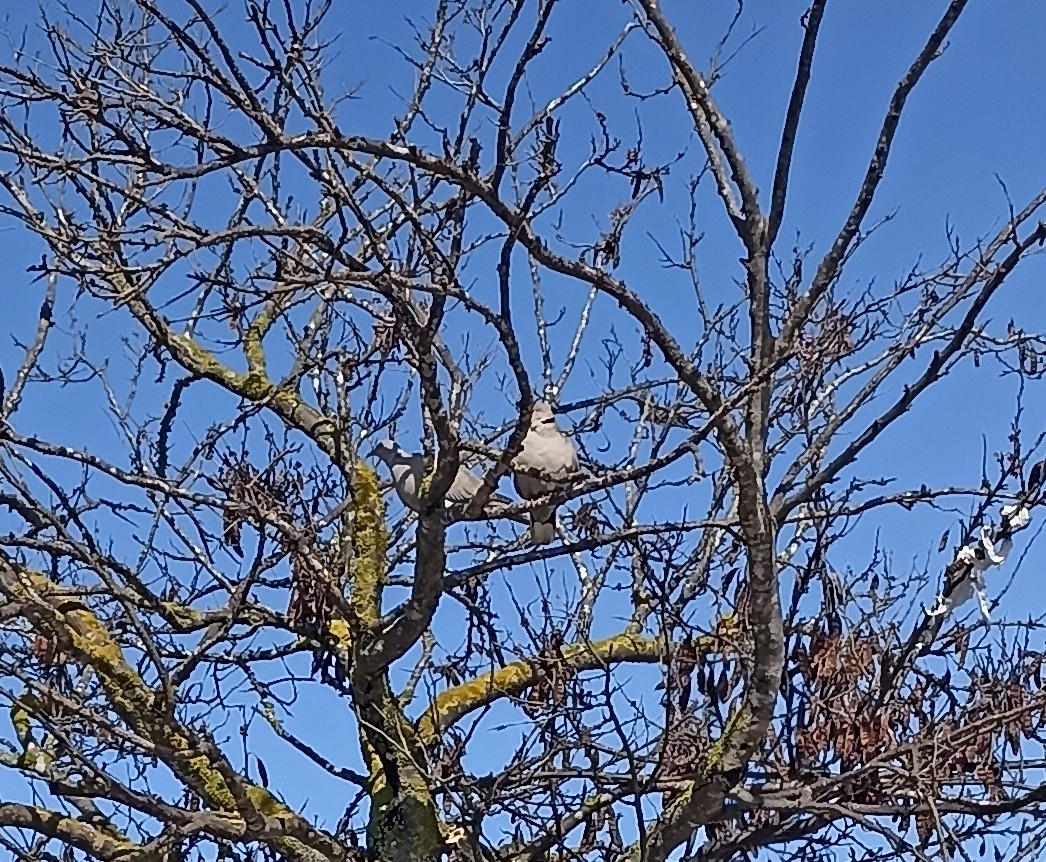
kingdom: Animalia
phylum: Chordata
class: Aves
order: Columbiformes
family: Columbidae
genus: Streptopelia
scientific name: Streptopelia decaocto
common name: Eurasian collared dove
